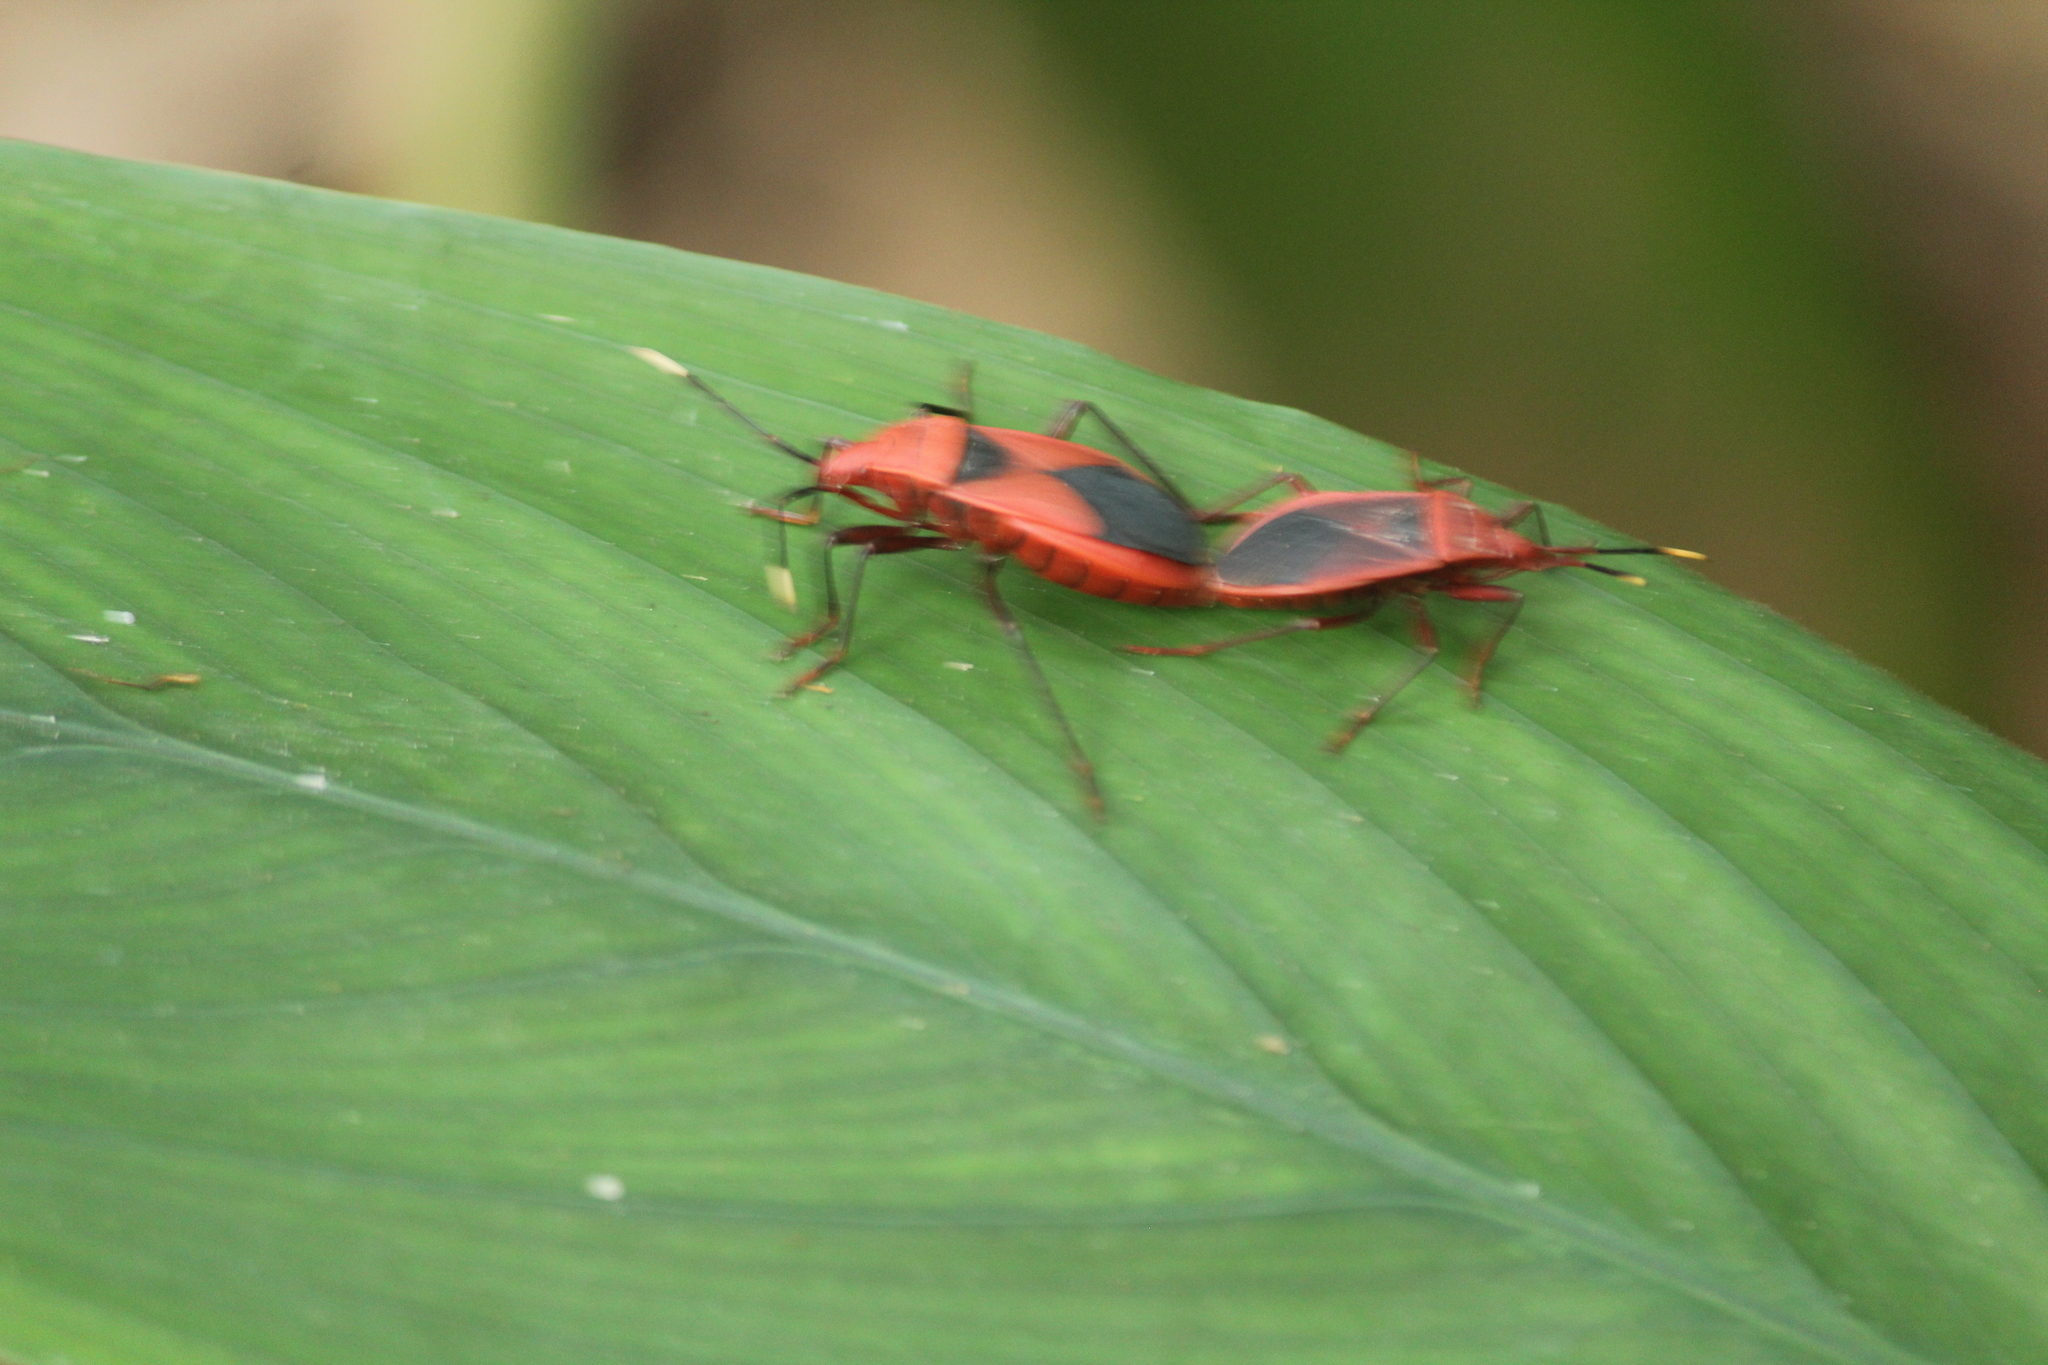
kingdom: Animalia
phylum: Arthropoda
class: Insecta
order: Hemiptera
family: Pyrrhocoridae
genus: Probergrothius
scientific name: Probergrothius
